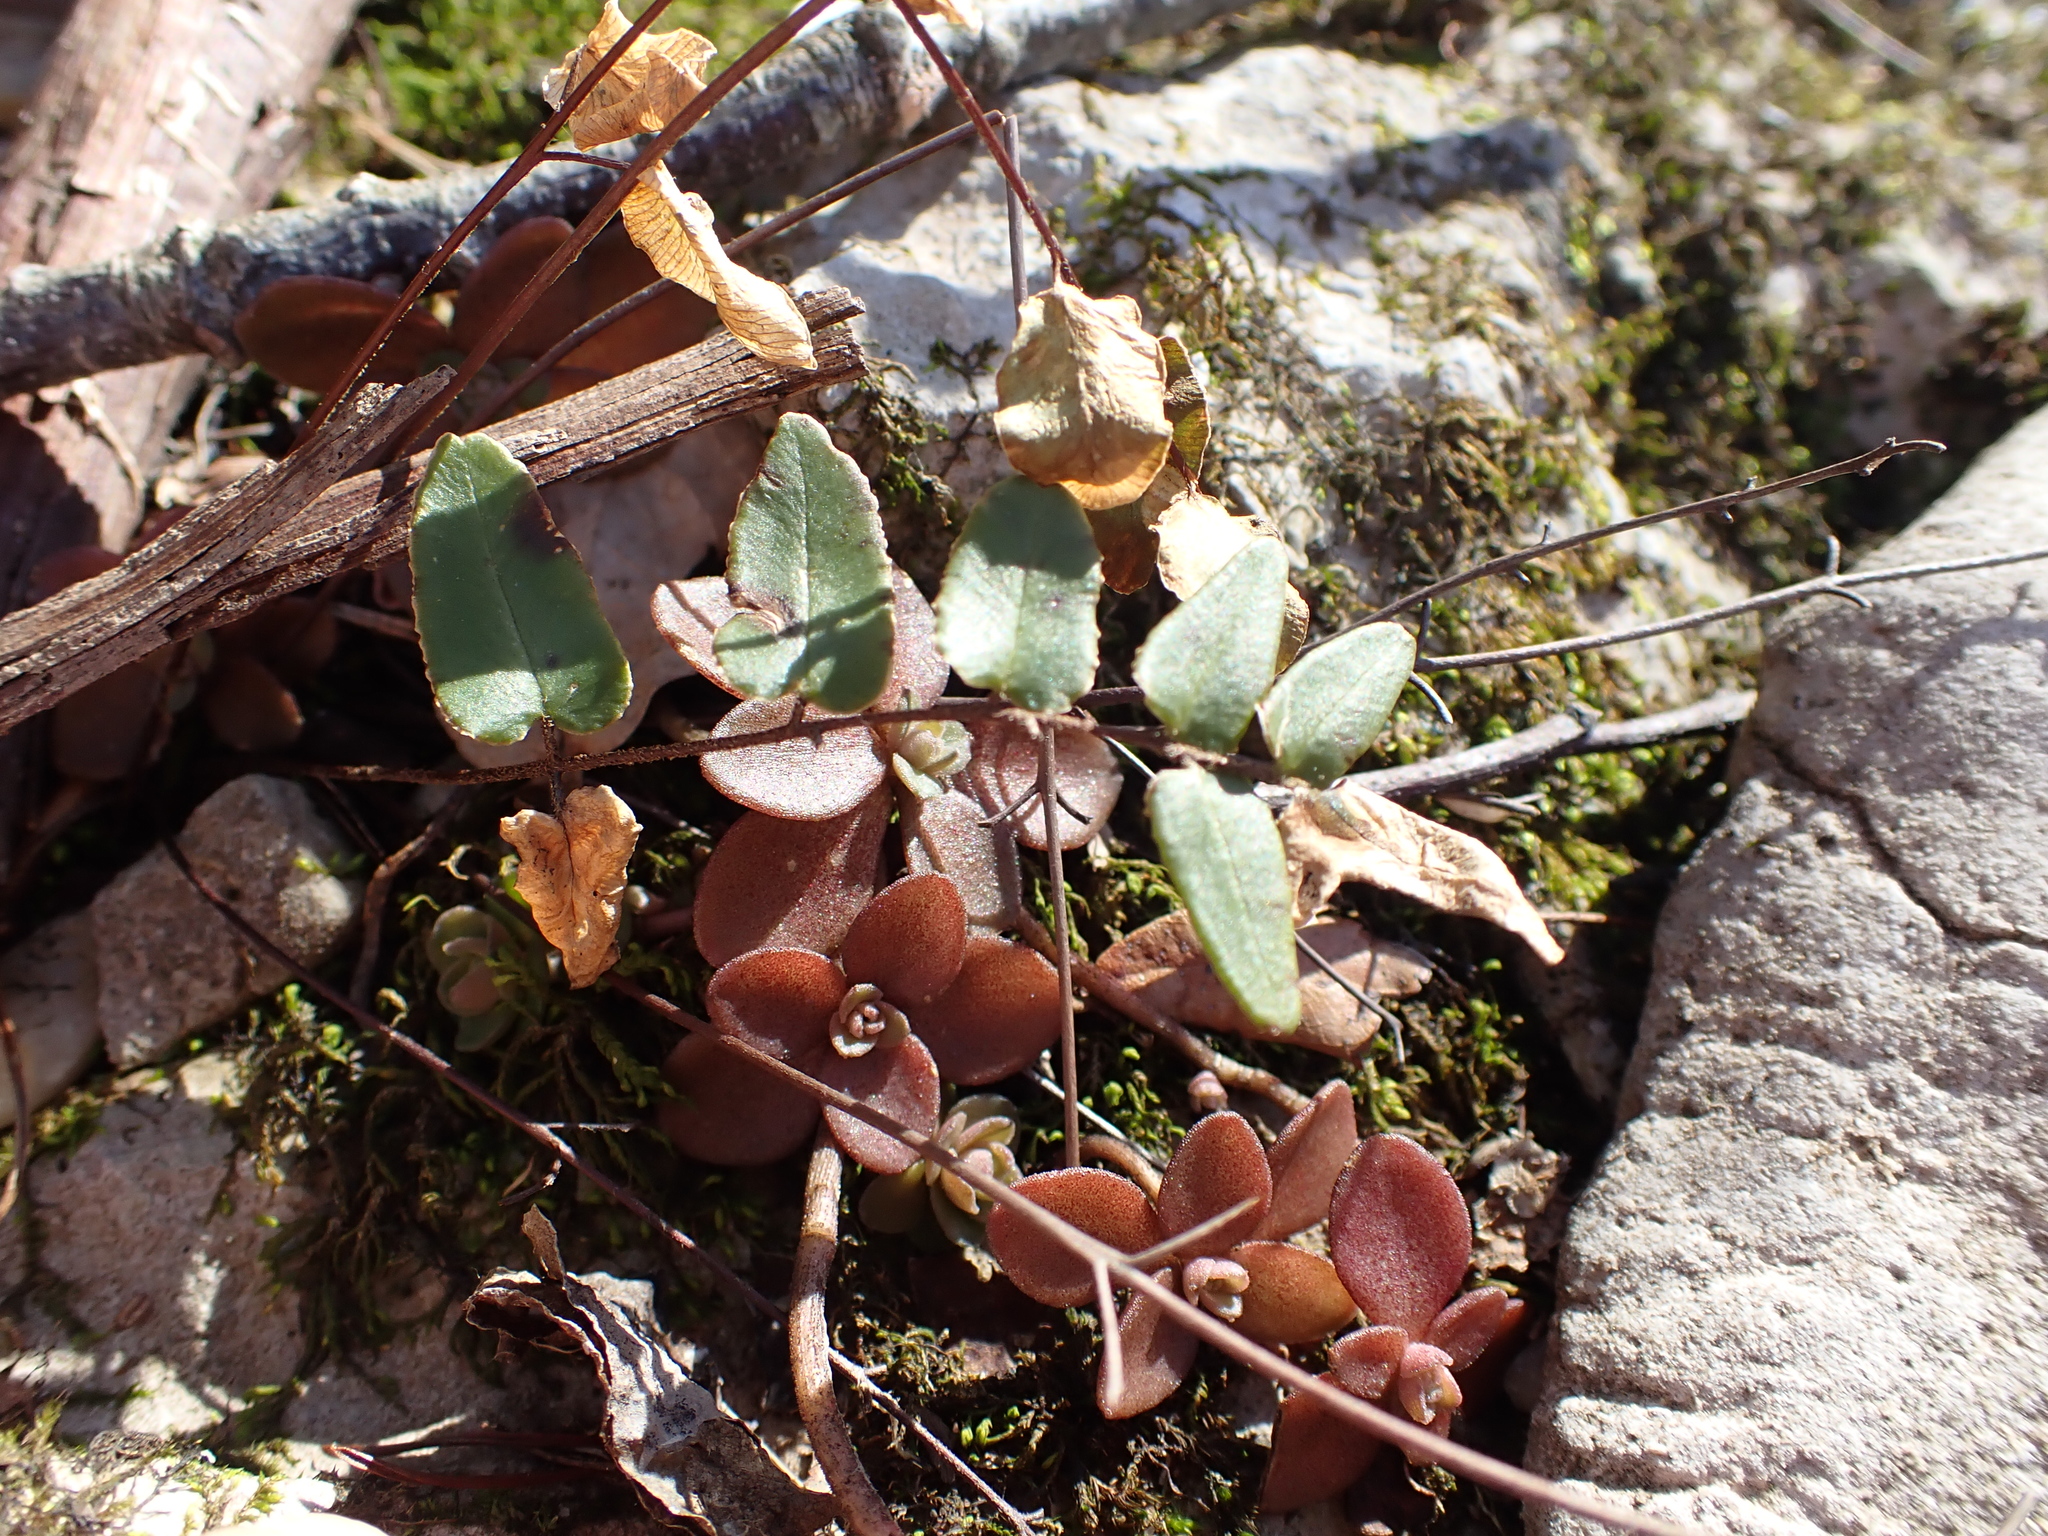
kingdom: Plantae
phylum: Tracheophyta
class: Polypodiopsida
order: Polypodiales
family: Pteridaceae
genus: Pellaea
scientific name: Pellaea atropurpurea
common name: Hairy cliffbrake
